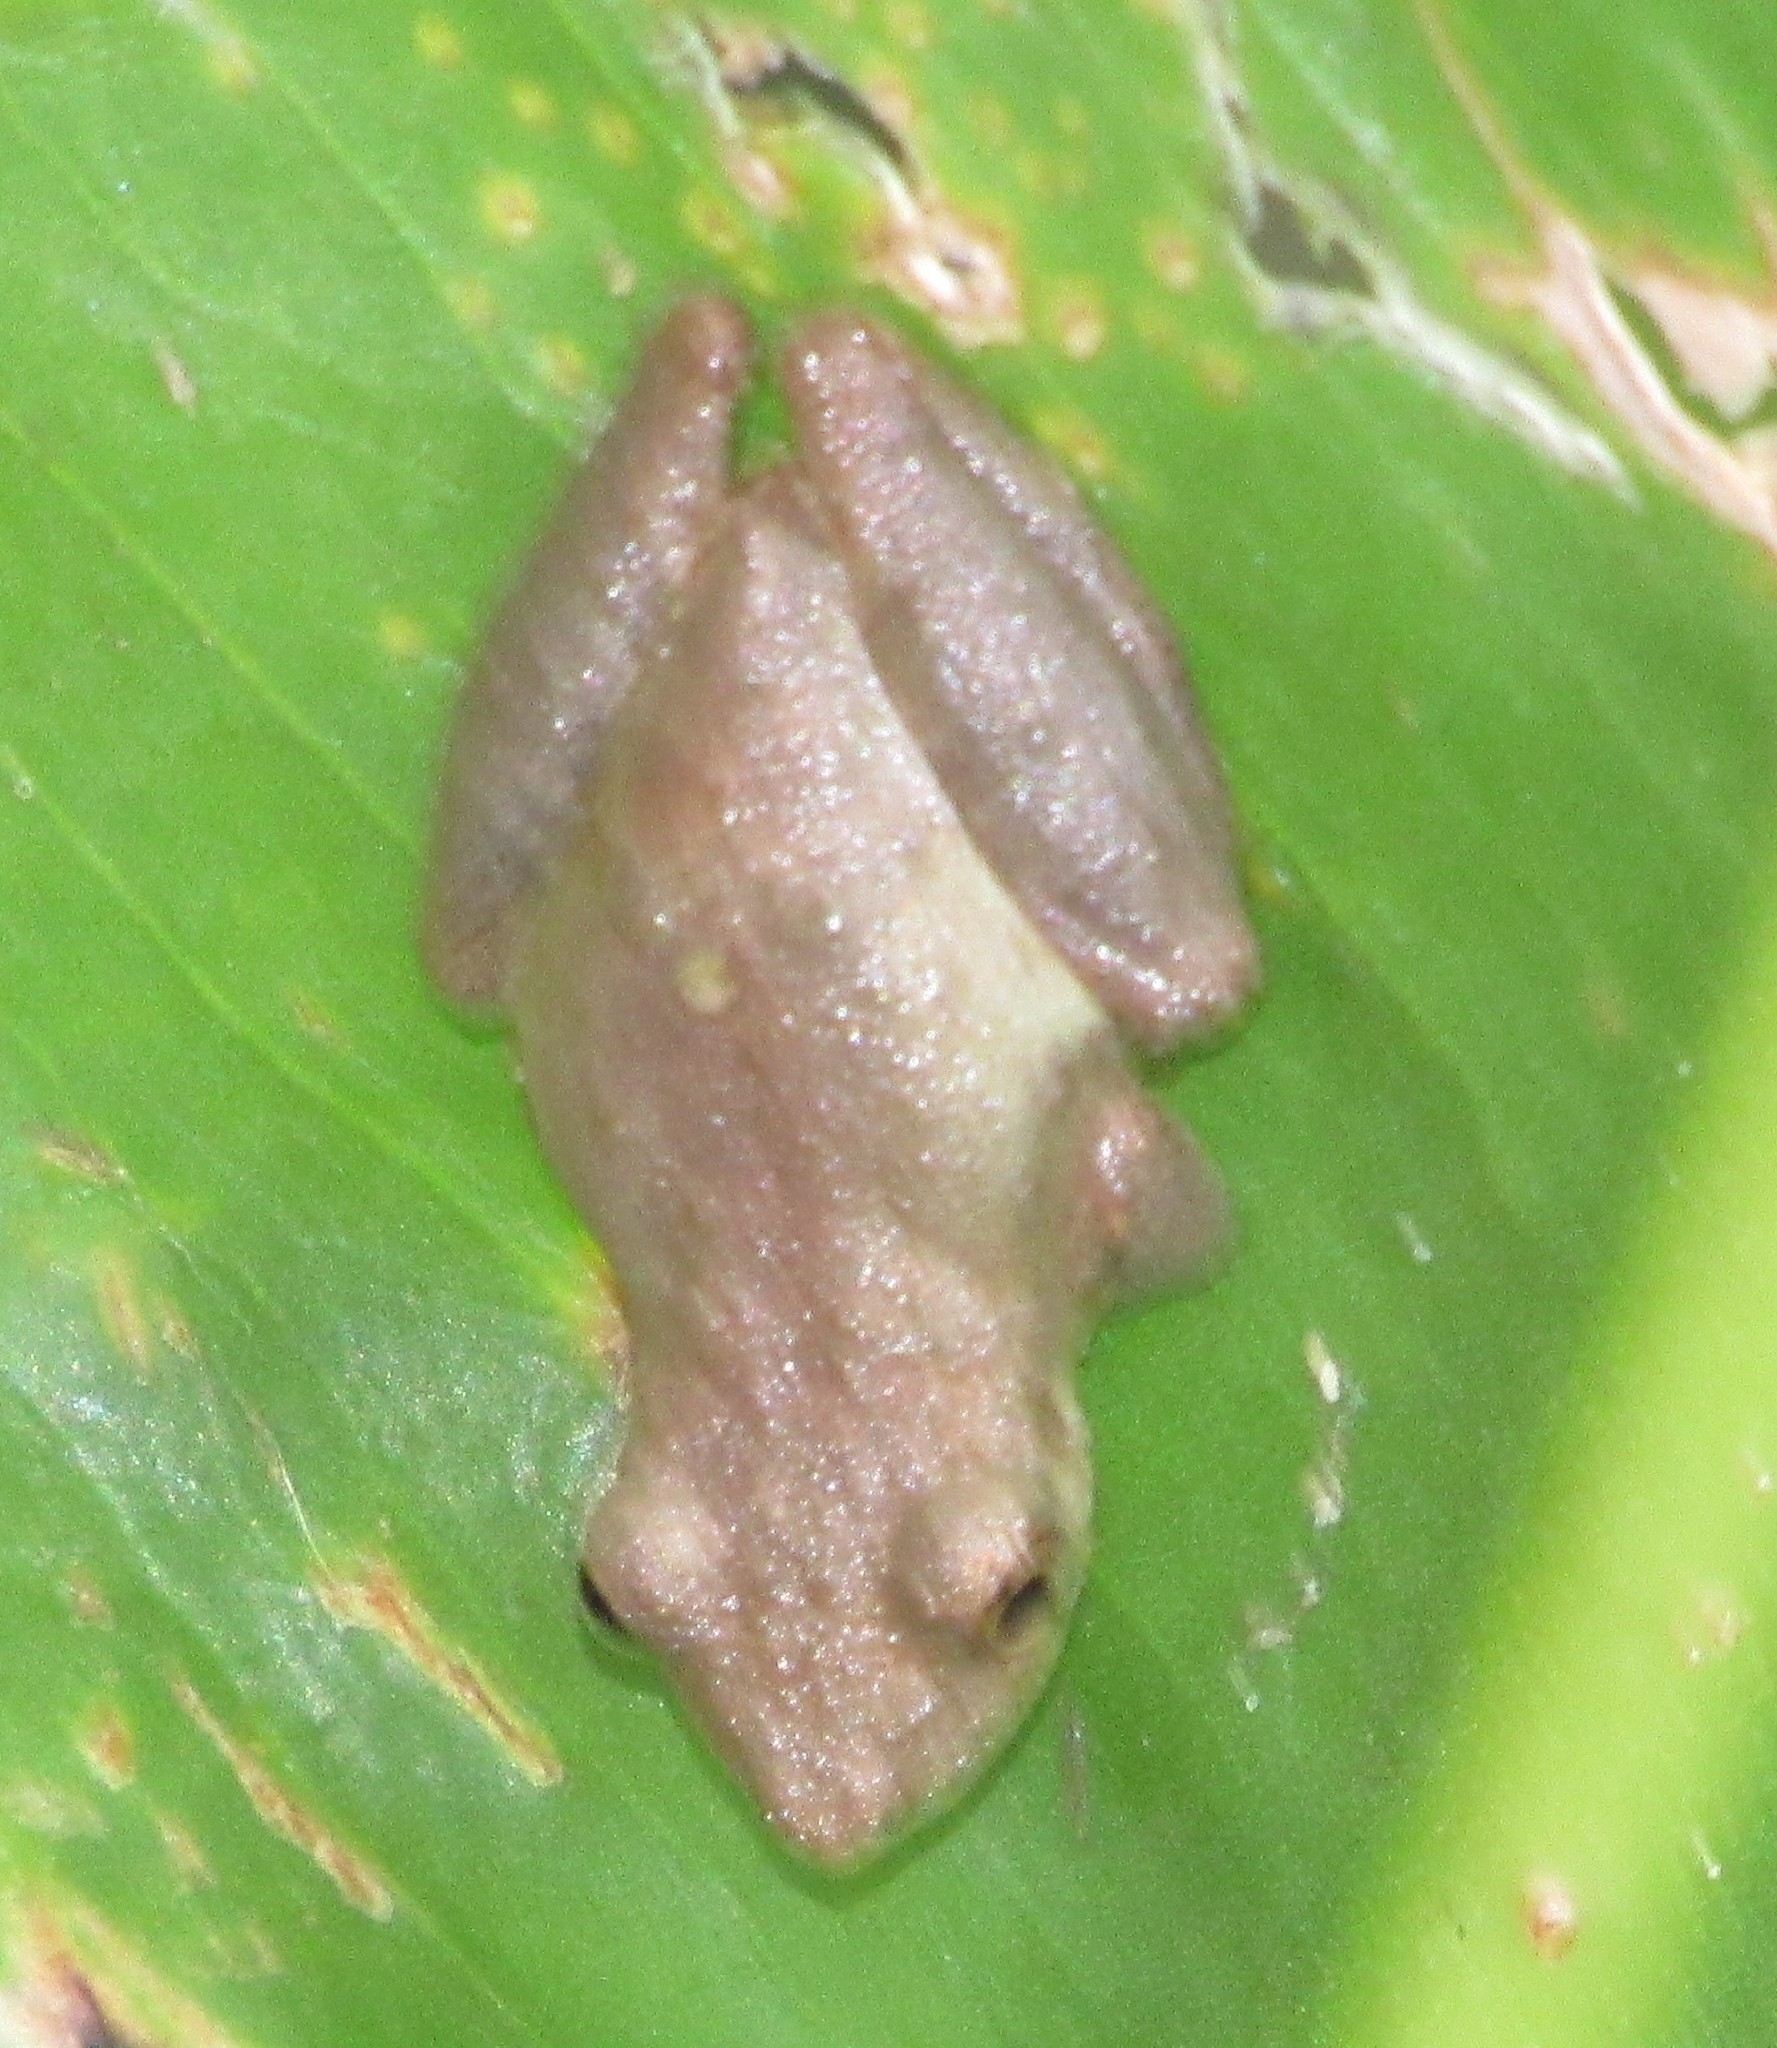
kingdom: Animalia
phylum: Chordata
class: Amphibia
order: Anura
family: Hylidae
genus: Scinax
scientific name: Scinax
